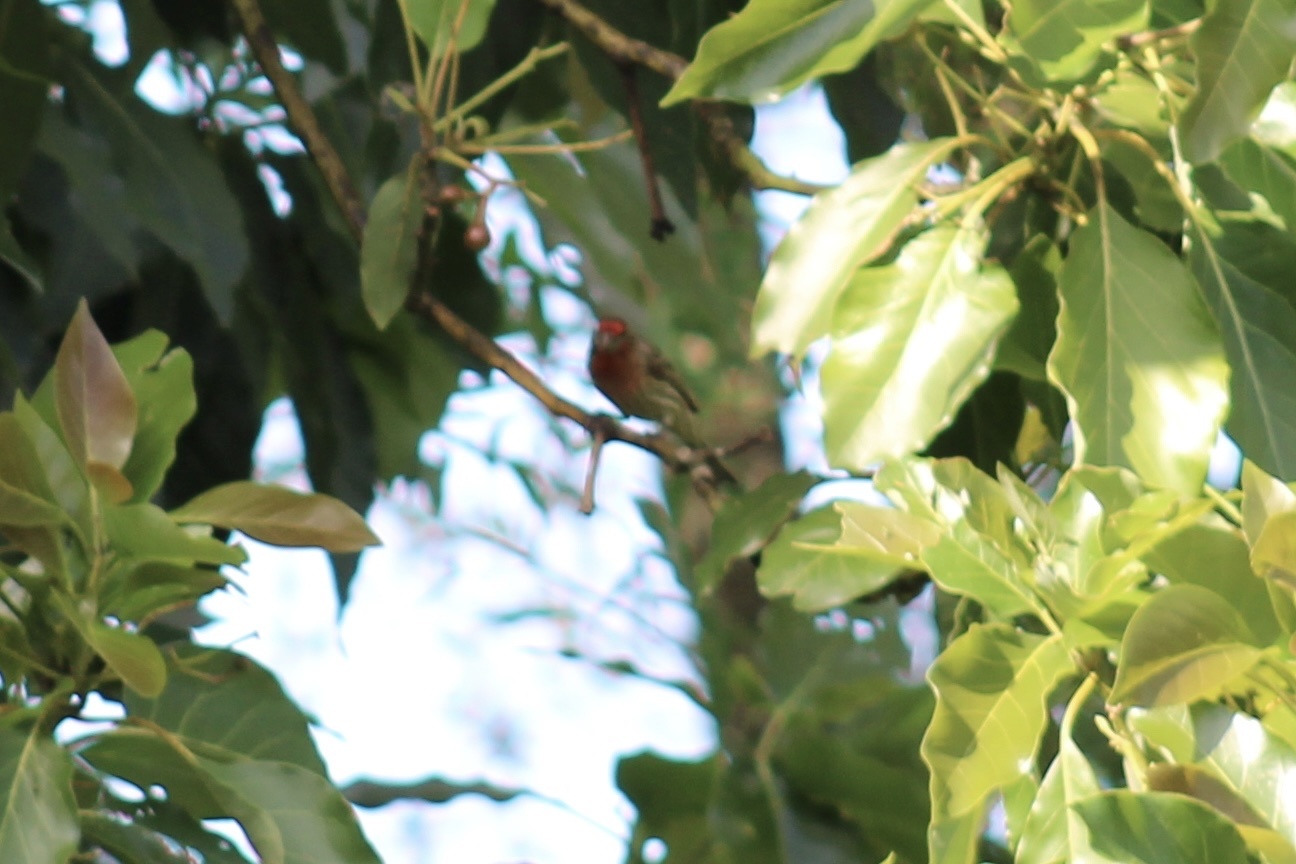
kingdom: Animalia
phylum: Chordata
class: Aves
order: Passeriformes
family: Fringillidae
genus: Haemorhous
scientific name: Haemorhous mexicanus
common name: House finch
